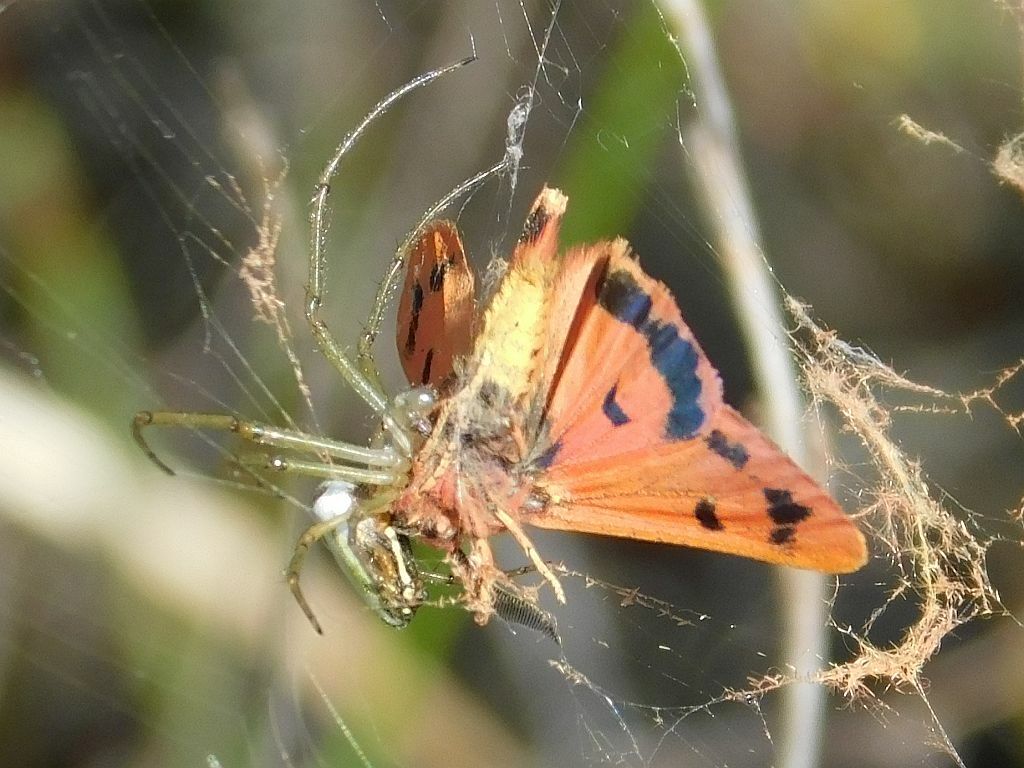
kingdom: Animalia
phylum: Arthropoda
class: Insecta
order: Lepidoptera
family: Erebidae
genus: Phragmatobia
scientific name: Phragmatobia parvula
